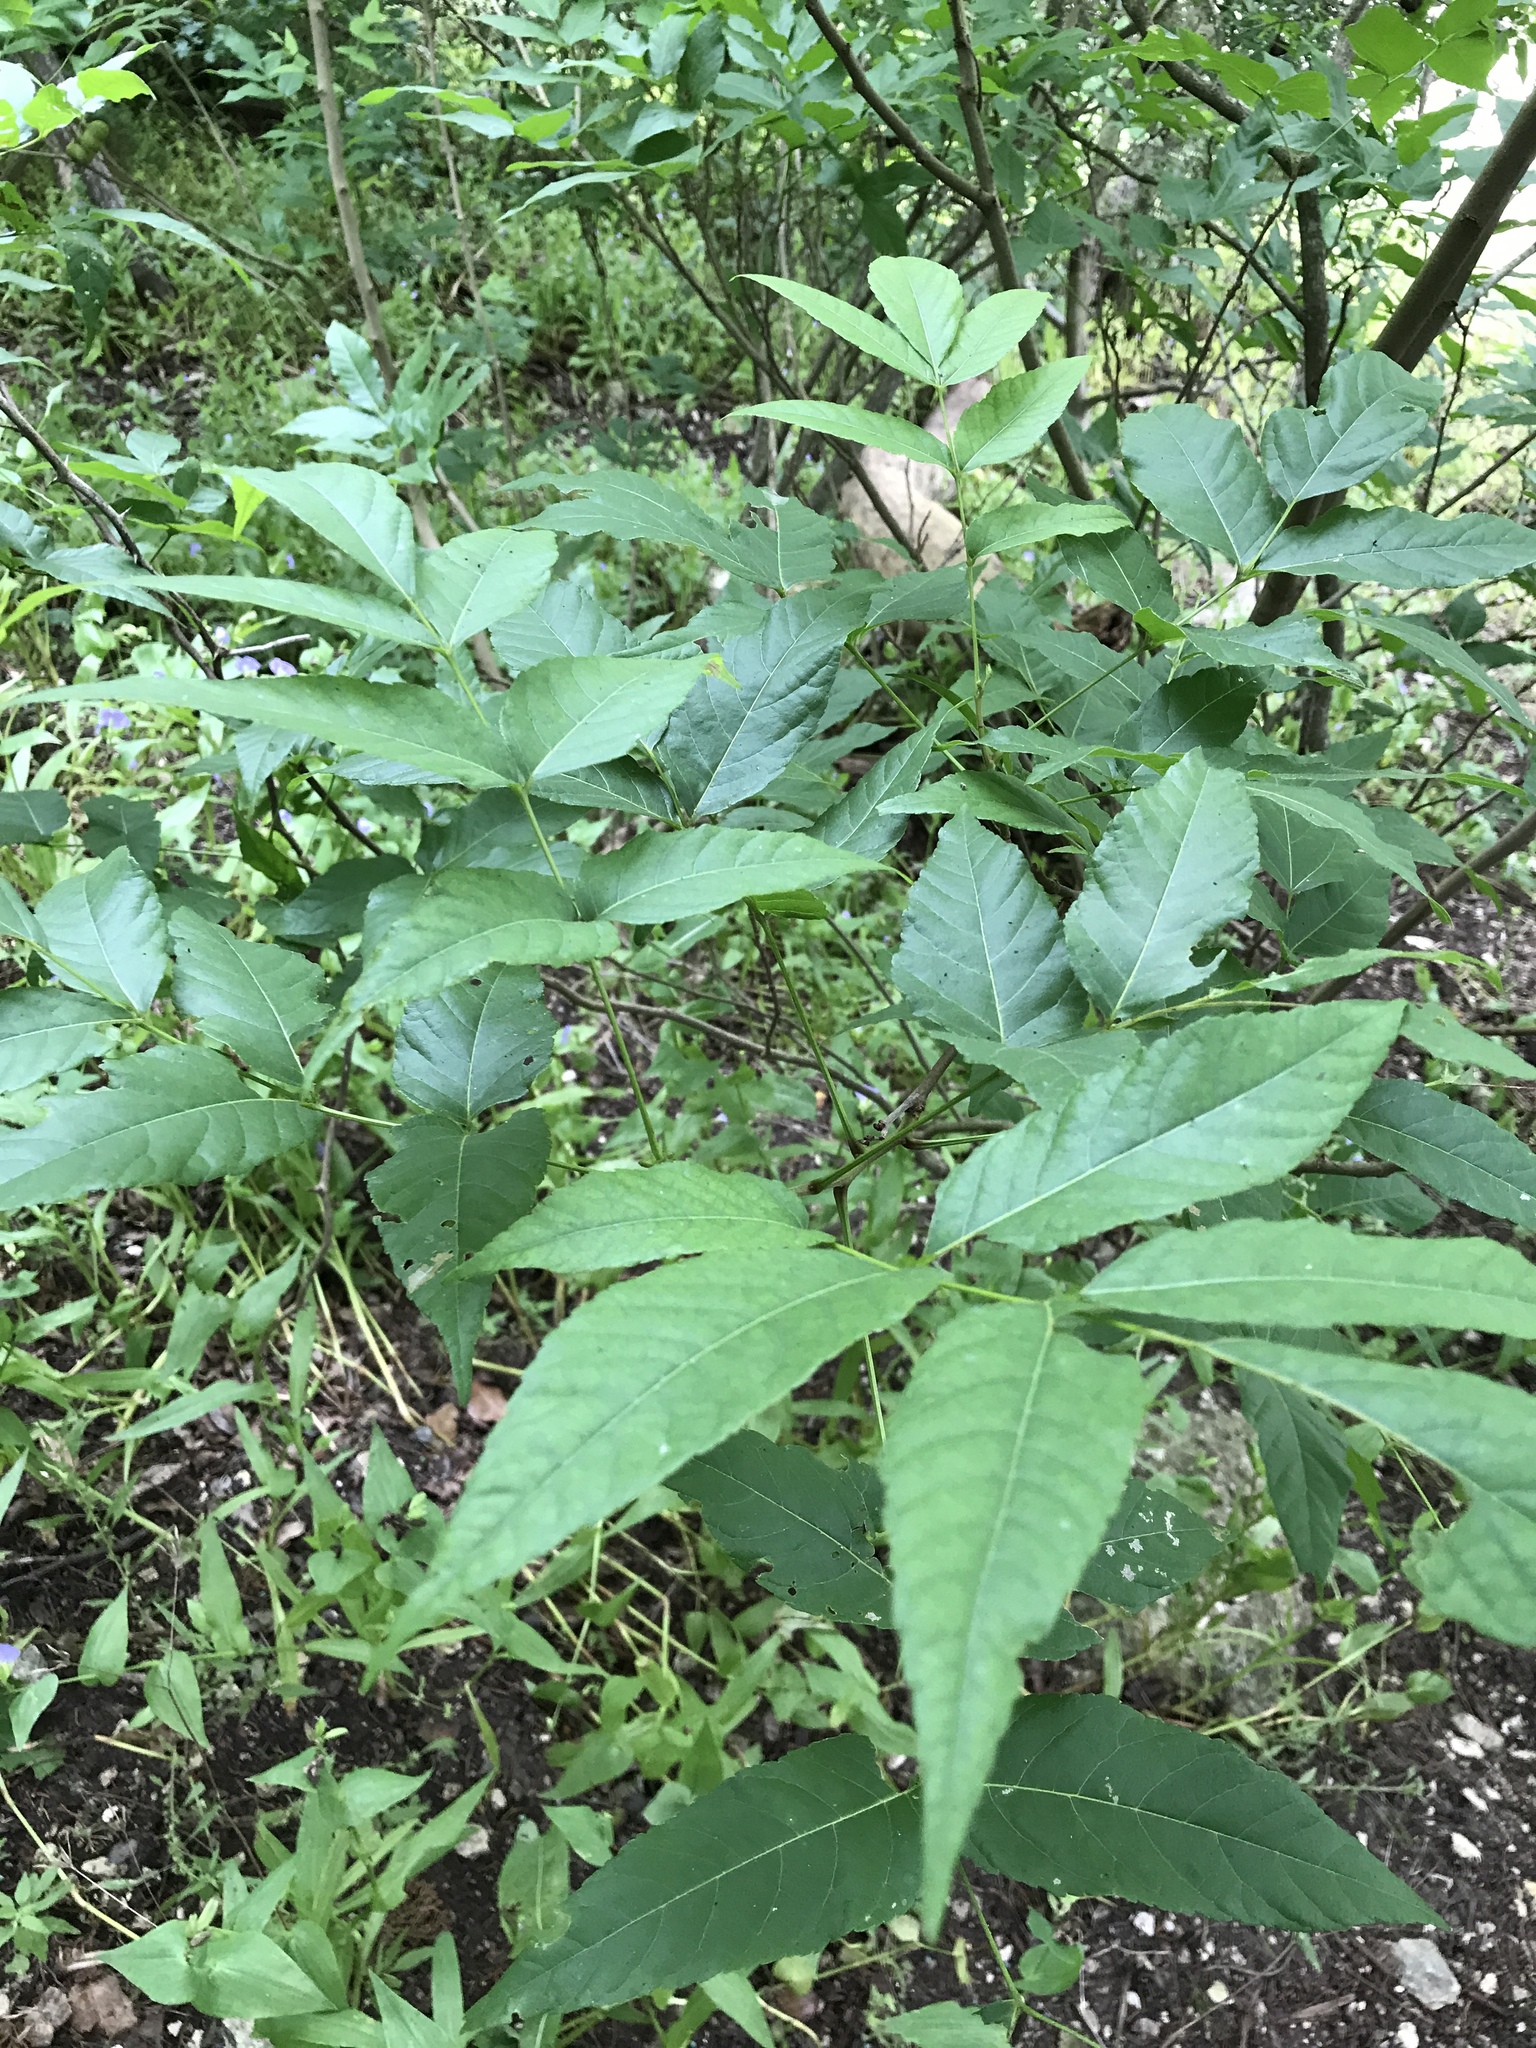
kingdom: Plantae
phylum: Tracheophyta
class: Magnoliopsida
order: Sapindales
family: Sapindaceae
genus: Ungnadia
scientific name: Ungnadia speciosa
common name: Texas-buckeye
